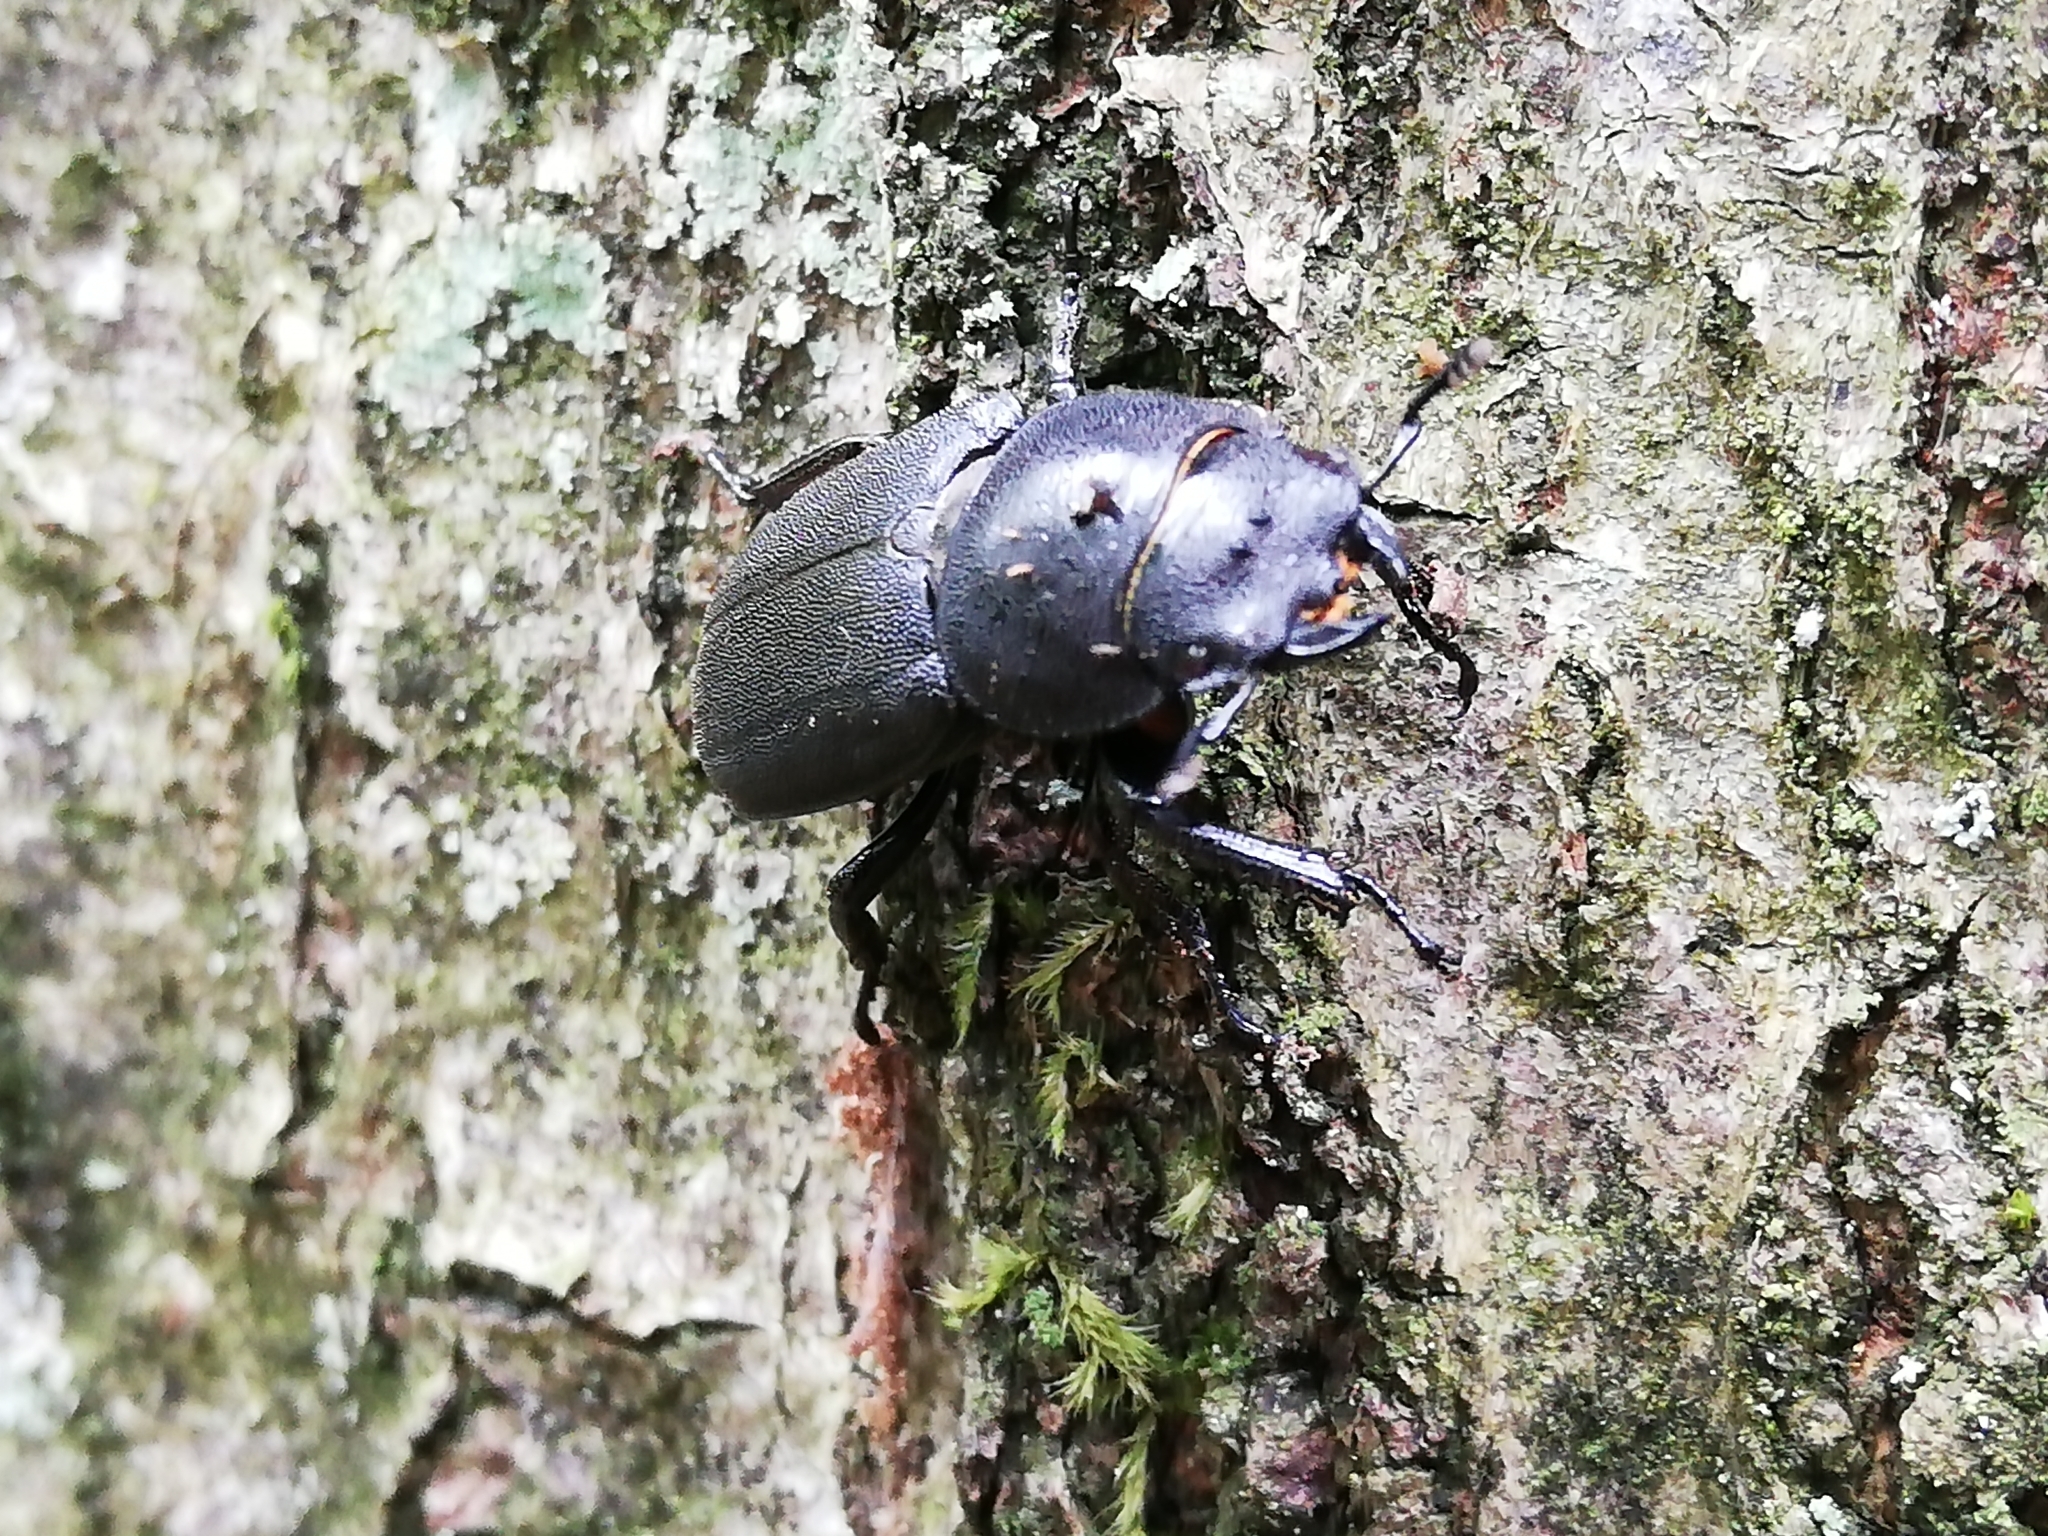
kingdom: Animalia
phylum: Arthropoda
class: Insecta
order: Coleoptera
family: Lucanidae
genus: Dorcus
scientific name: Dorcus parallelipipedus
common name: Lesser stag beetle
